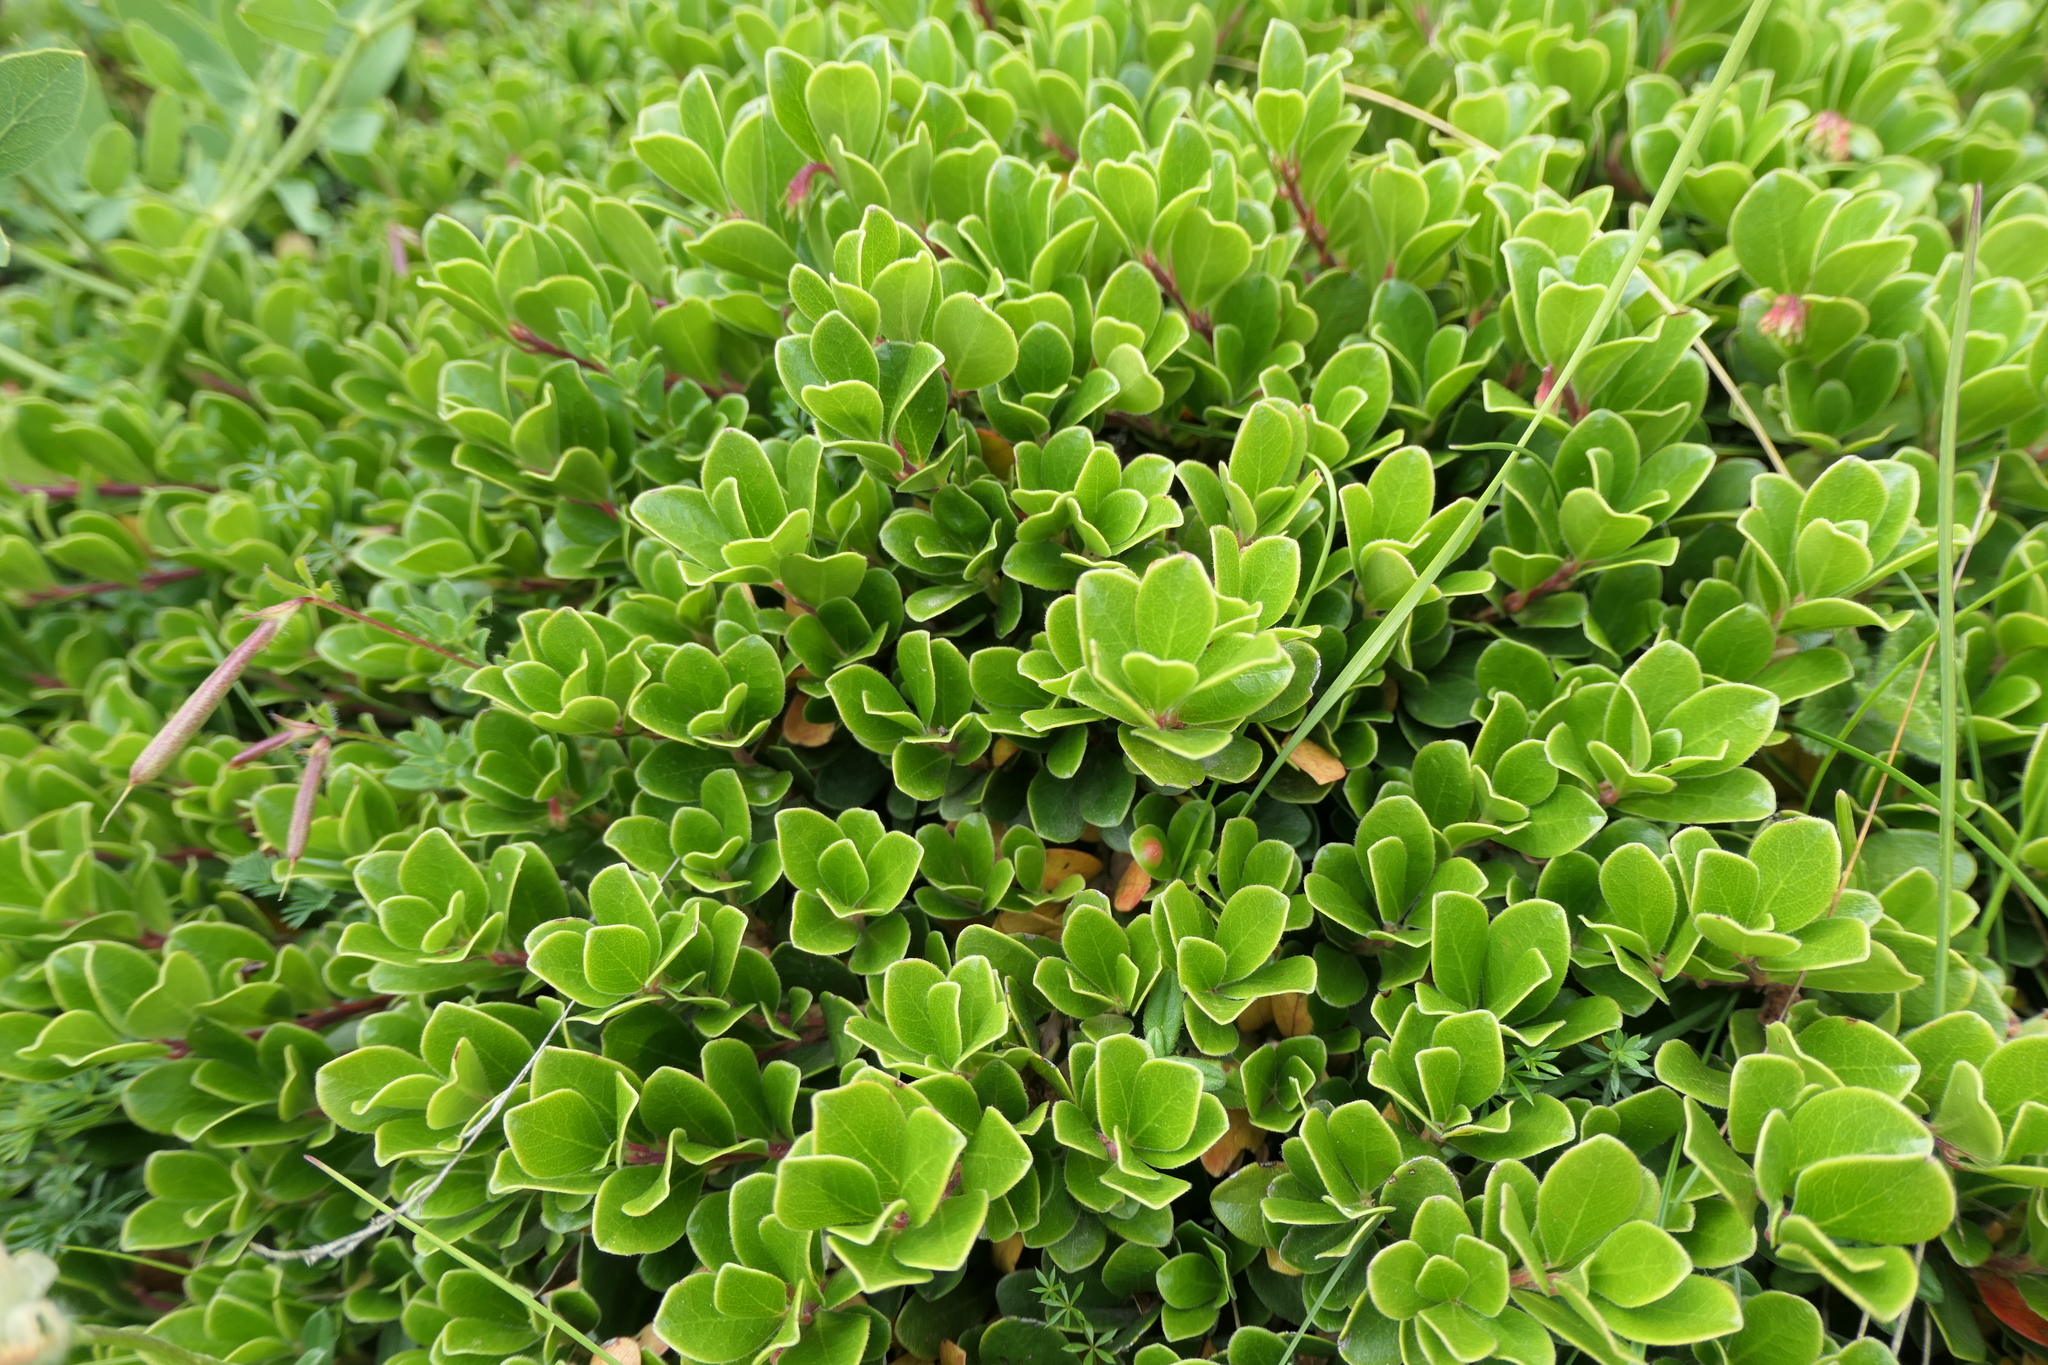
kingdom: Plantae
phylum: Tracheophyta
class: Magnoliopsida
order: Ericales
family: Ericaceae
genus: Arctostaphylos
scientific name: Arctostaphylos uva-ursi
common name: Bearberry
